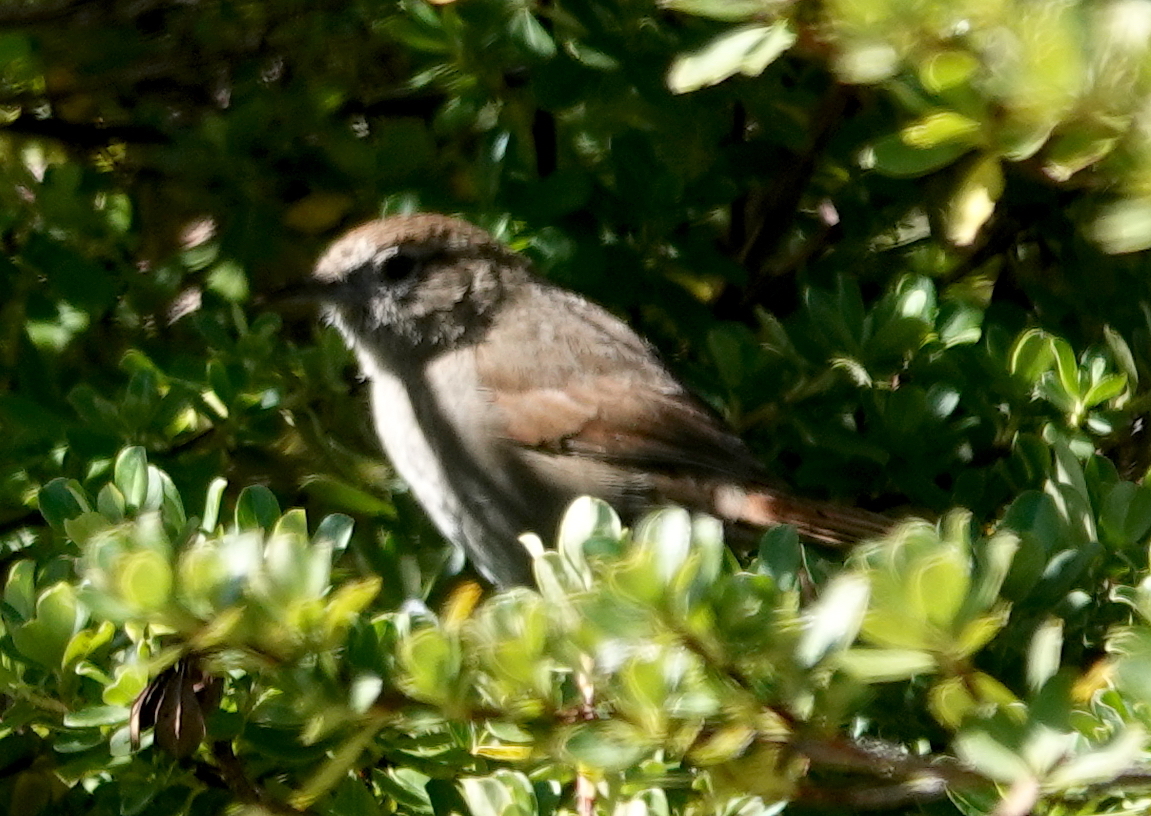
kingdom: Animalia
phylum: Chordata
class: Aves
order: Passeriformes
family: Furnariidae
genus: Asthenes
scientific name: Asthenes perijana
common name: Perija thistletail
